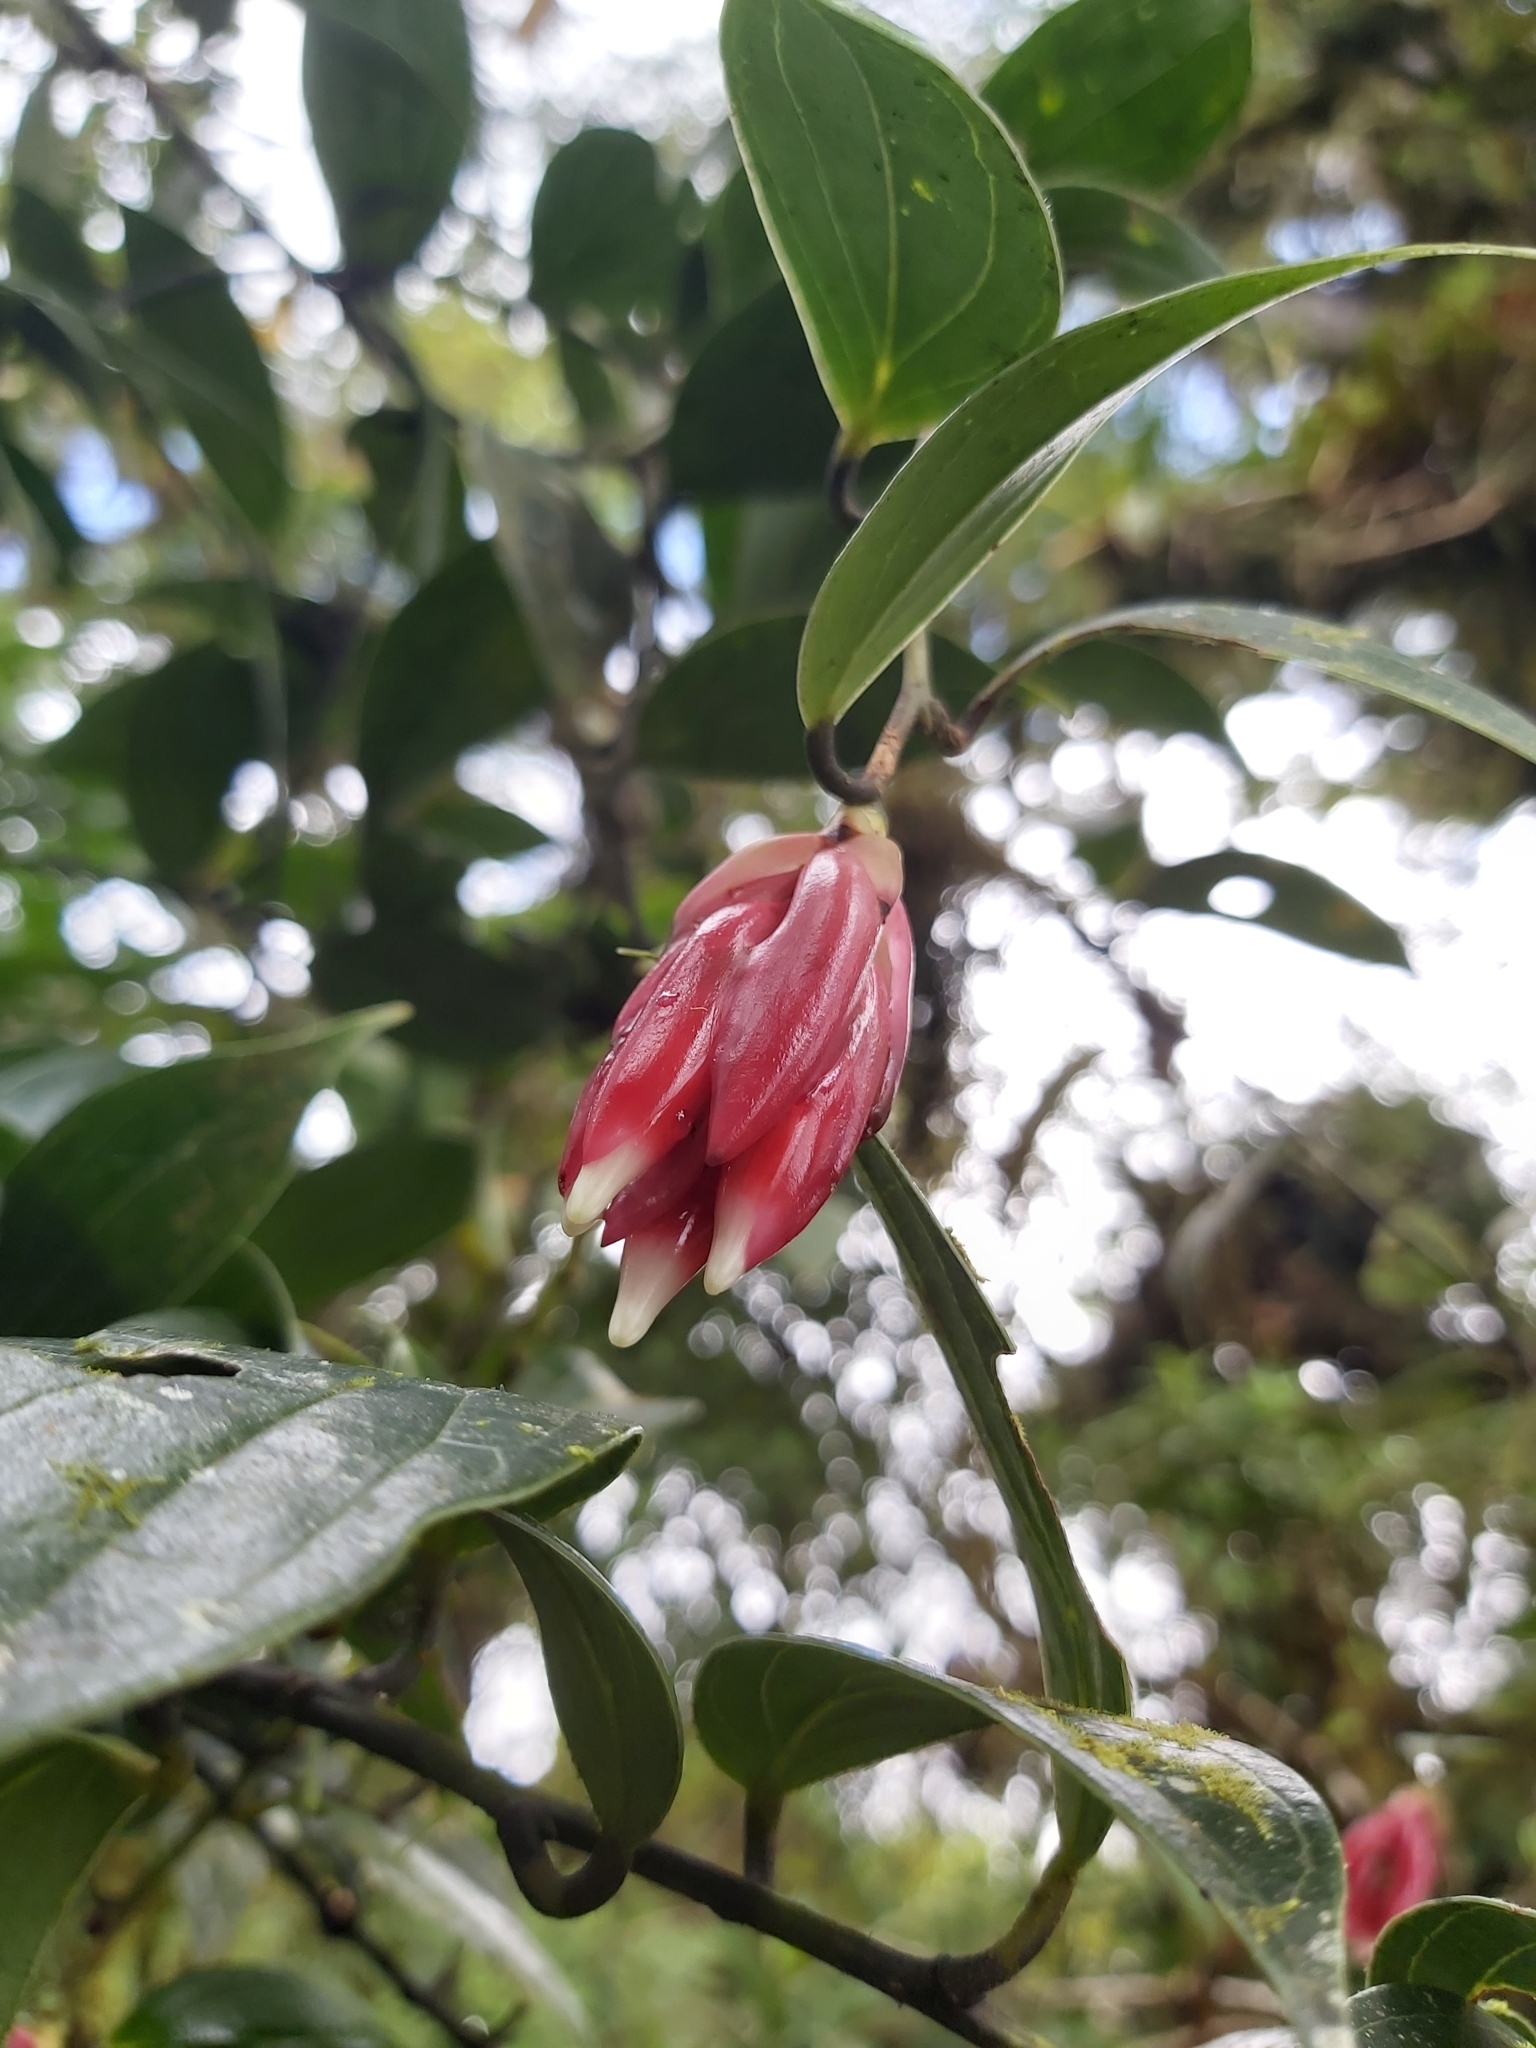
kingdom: Plantae
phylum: Tracheophyta
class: Magnoliopsida
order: Ericales
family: Ericaceae
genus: Cavendishia
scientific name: Cavendishia bracteata
